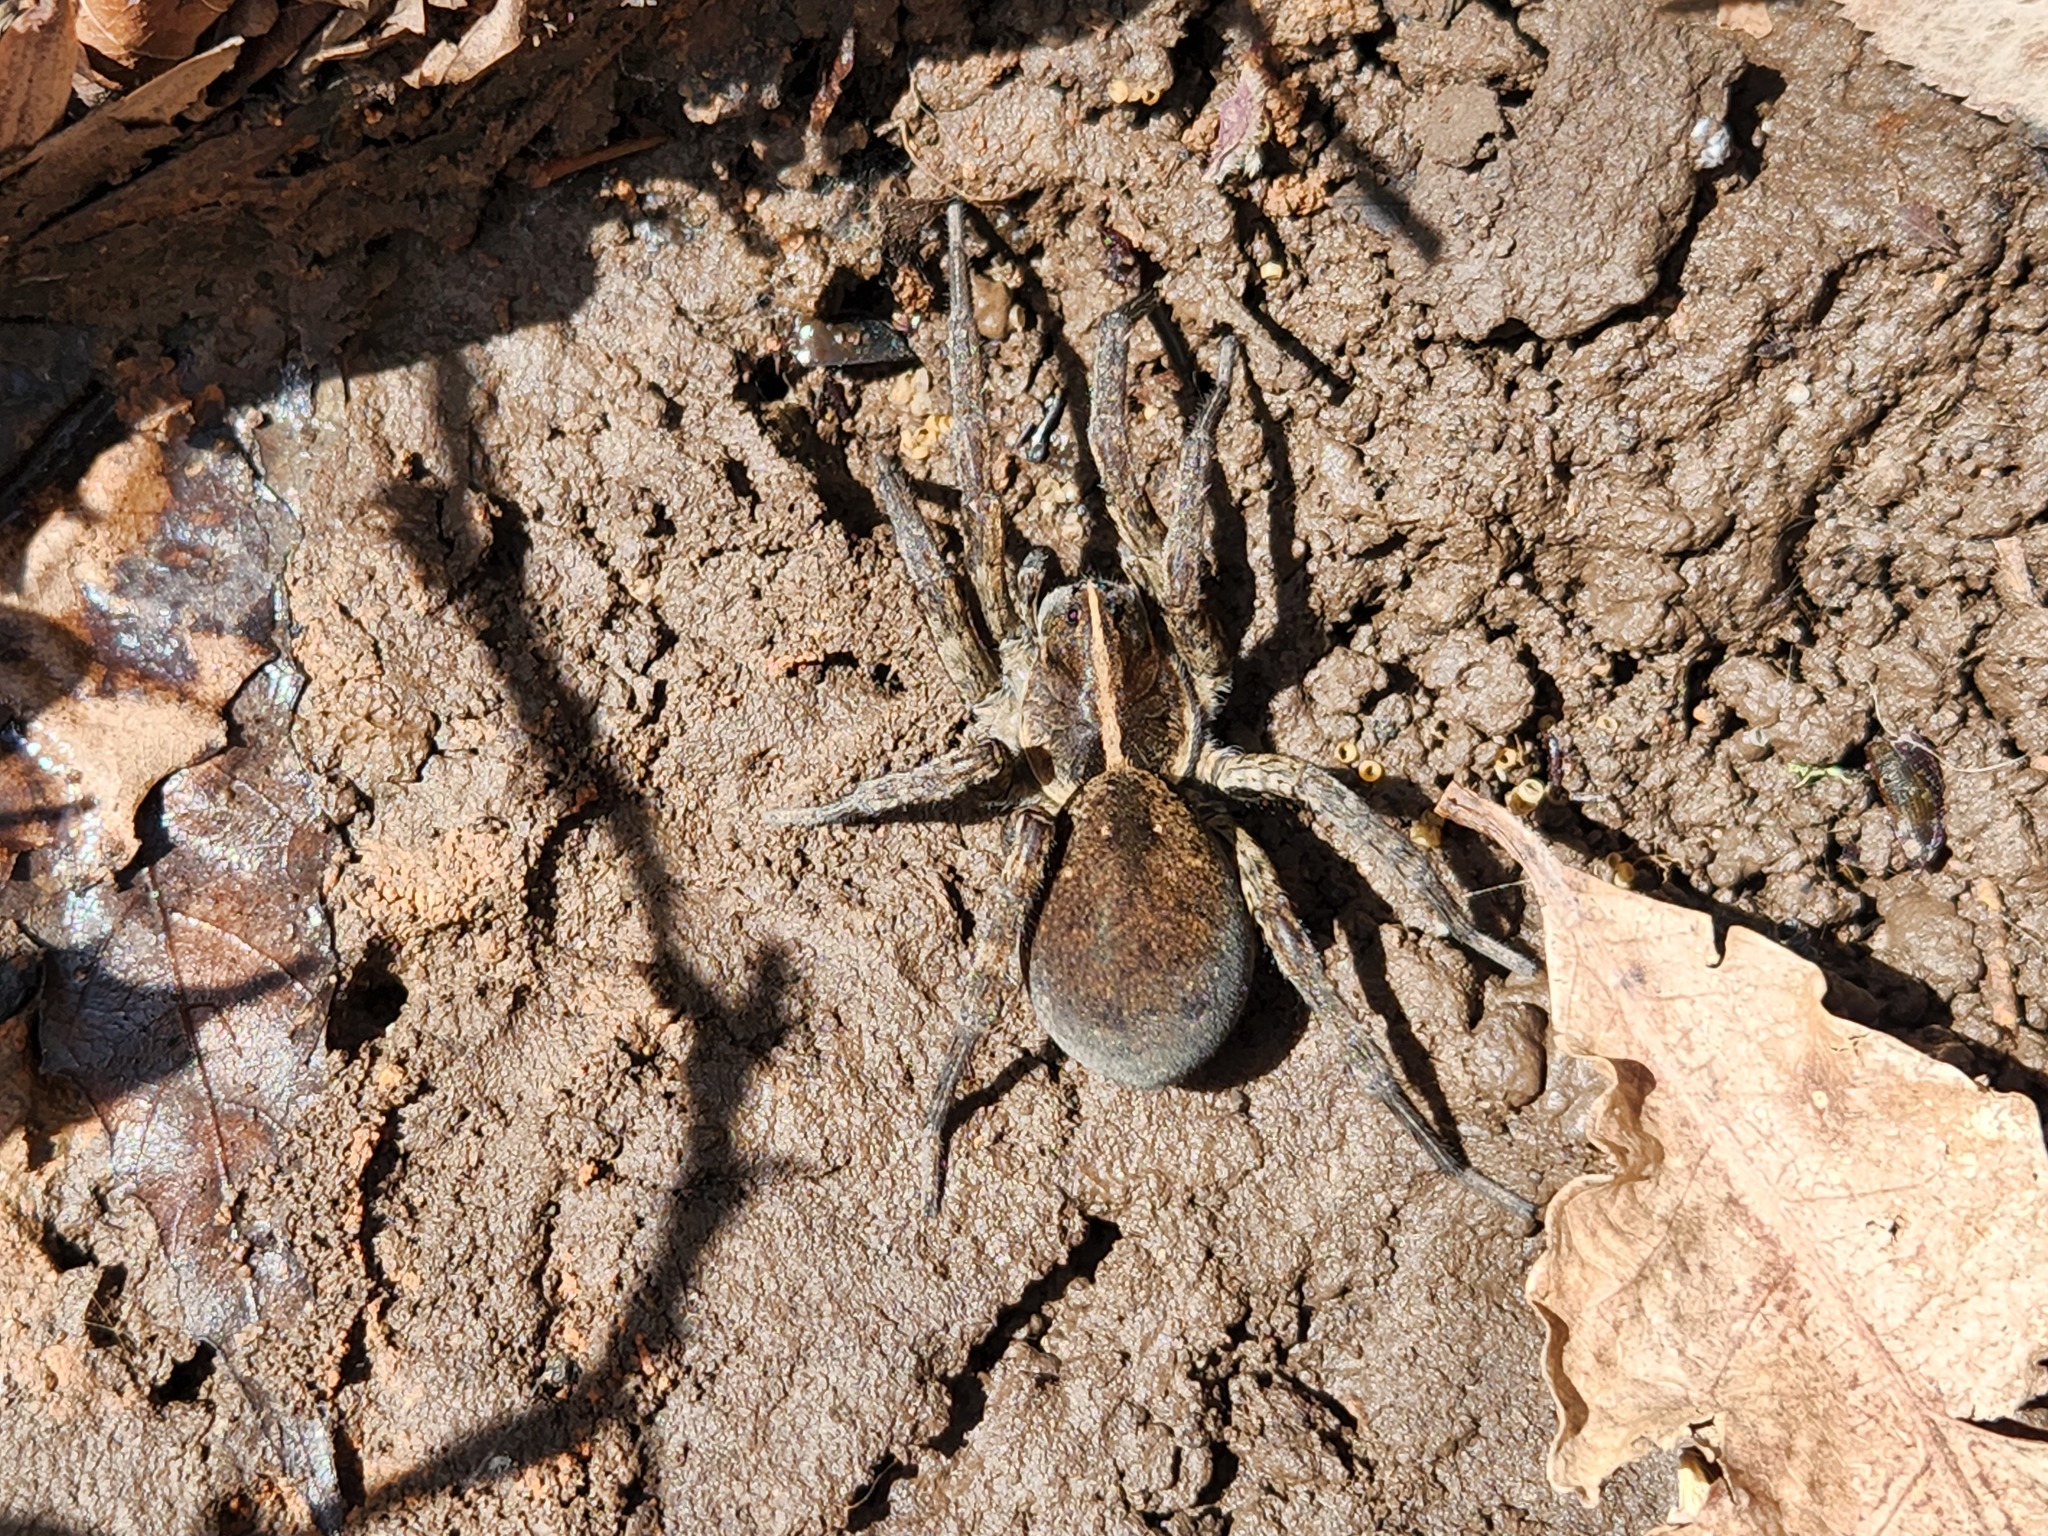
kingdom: Animalia
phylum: Arthropoda
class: Arachnida
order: Araneae
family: Lycosidae
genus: Tigrosa
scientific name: Tigrosa georgicola
